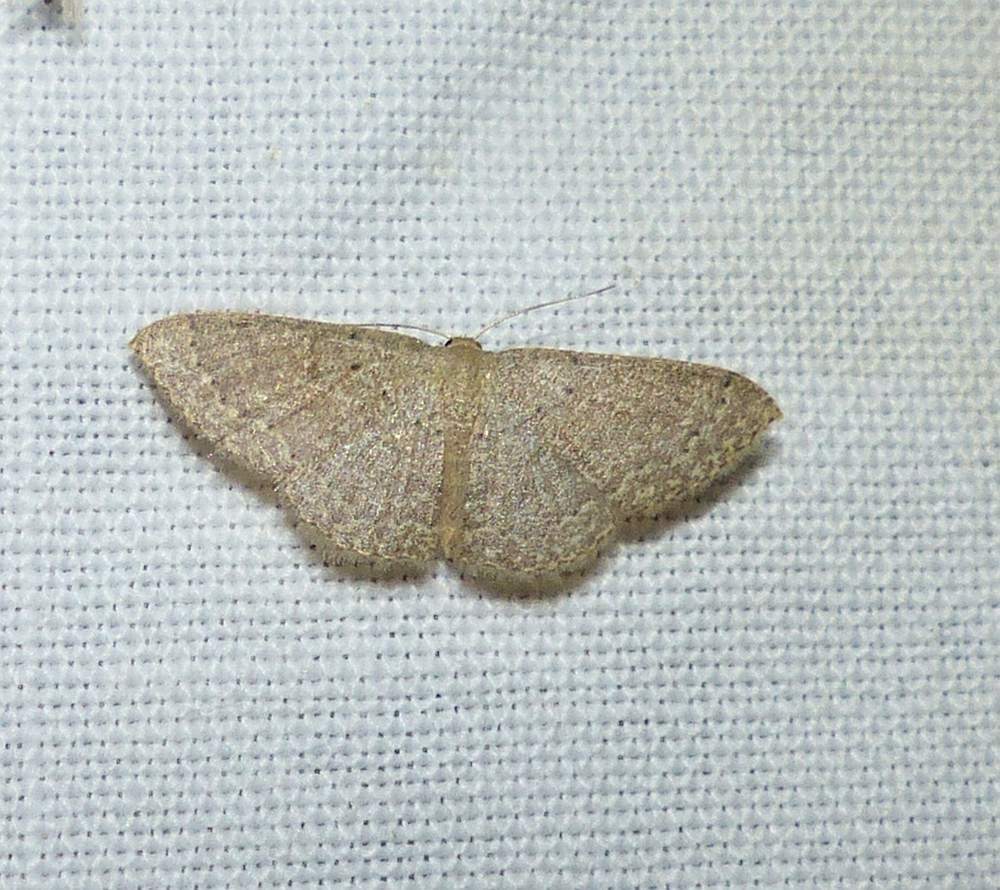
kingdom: Animalia
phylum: Arthropoda
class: Insecta
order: Lepidoptera
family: Geometridae
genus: Pleuroprucha
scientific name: Pleuroprucha insulsaria
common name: Common tan wave
